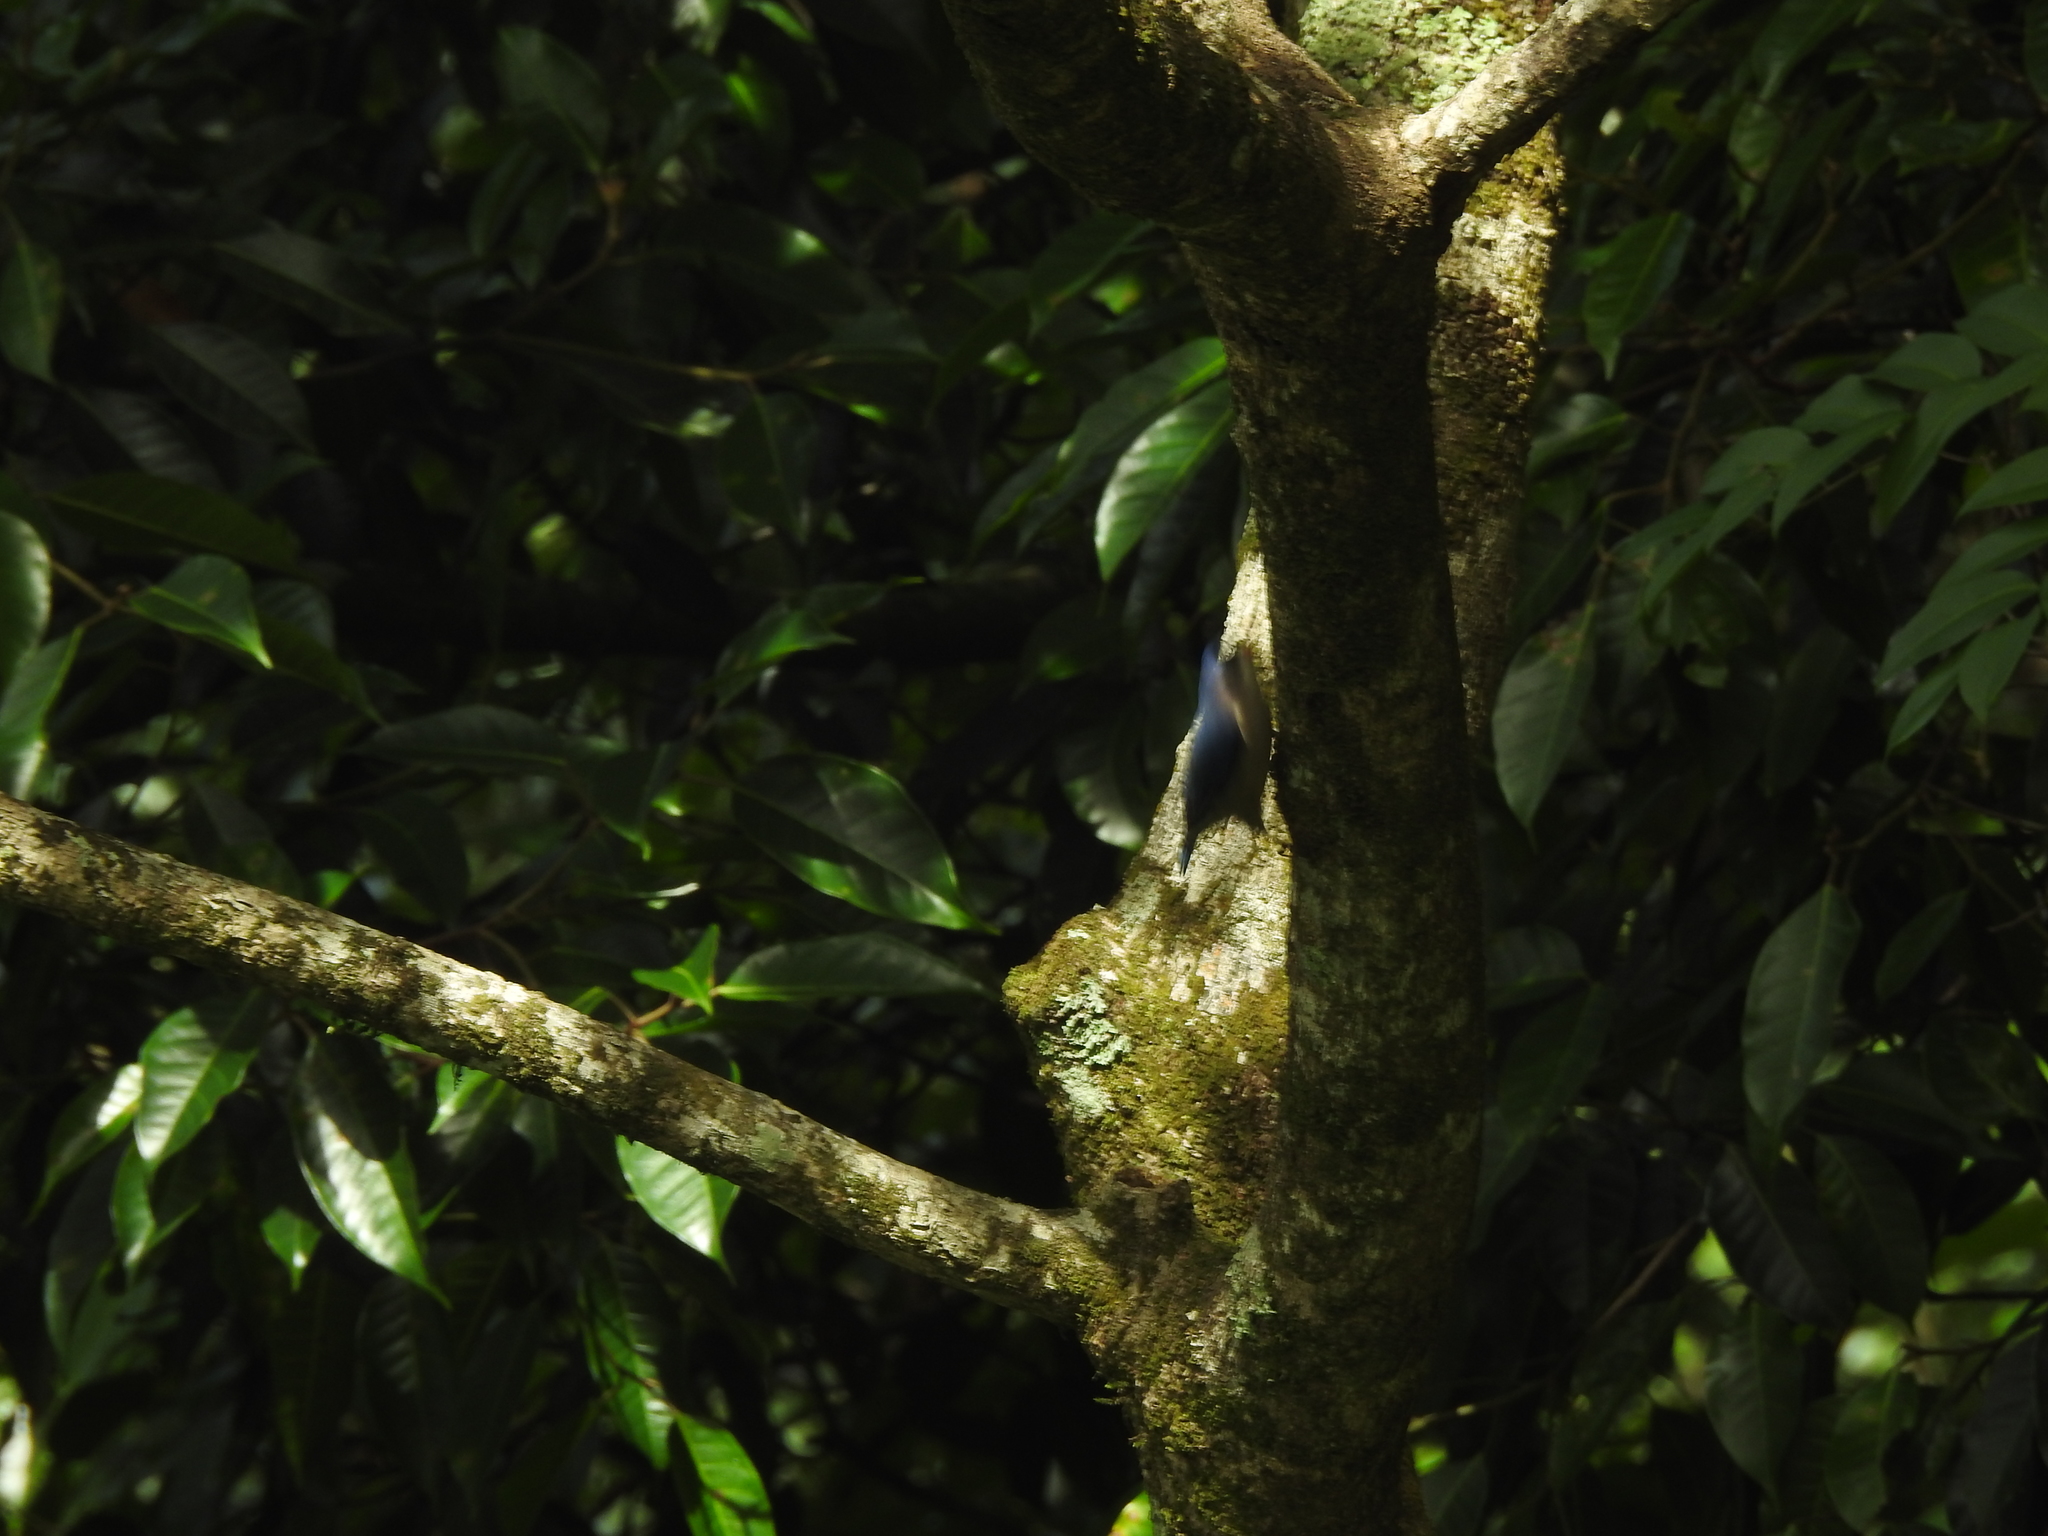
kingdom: Animalia
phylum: Chordata
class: Aves
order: Passeriformes
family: Sittidae
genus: Sitta
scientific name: Sitta frontalis
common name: Velvet-fronted nuthatch
